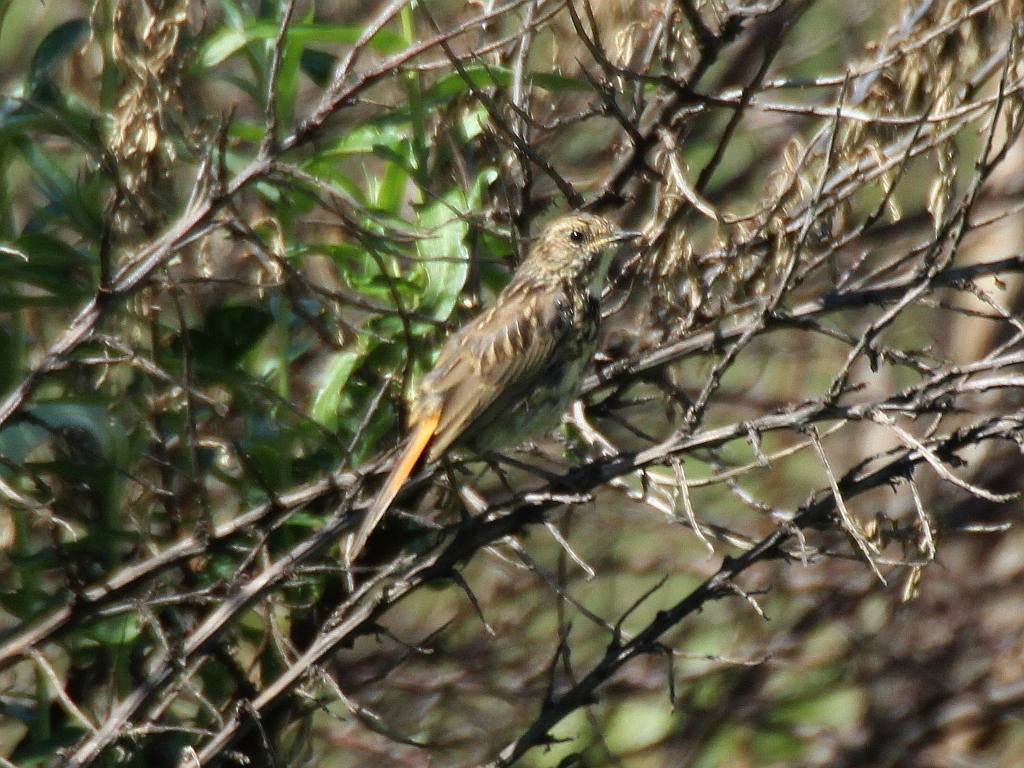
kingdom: Animalia
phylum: Chordata
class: Aves
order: Passeriformes
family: Muscicapidae
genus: Luscinia
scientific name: Luscinia svecica
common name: Bluethroat
